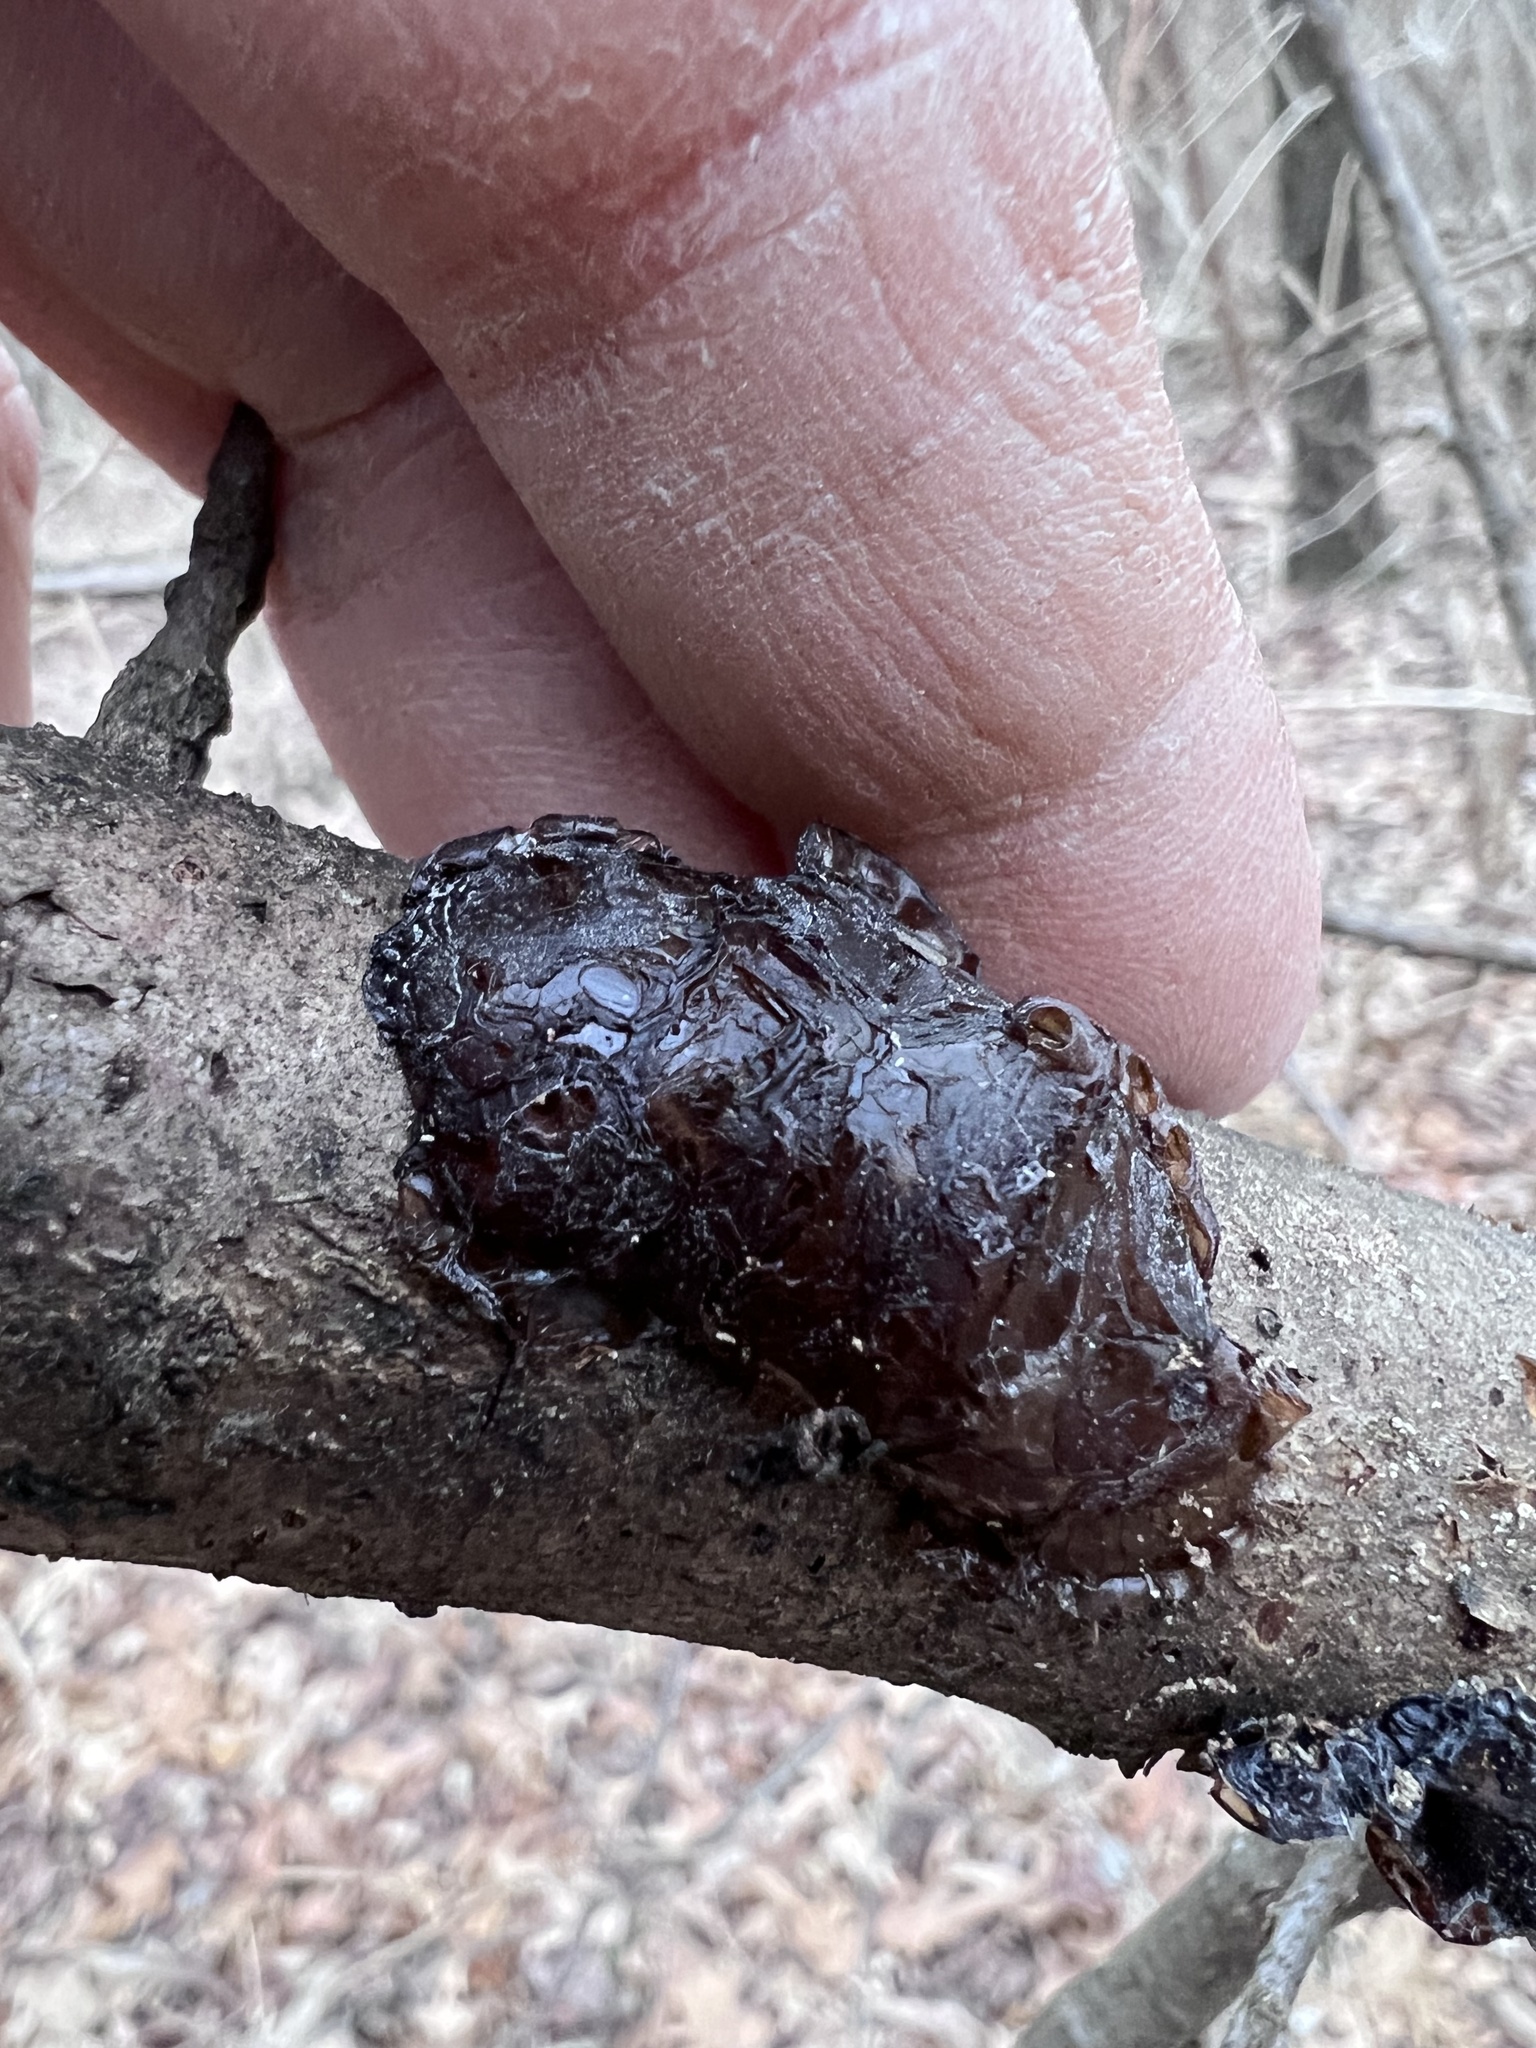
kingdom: Fungi
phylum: Basidiomycota
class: Agaricomycetes
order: Auriculariales
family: Auriculariaceae
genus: Exidia
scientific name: Exidia
